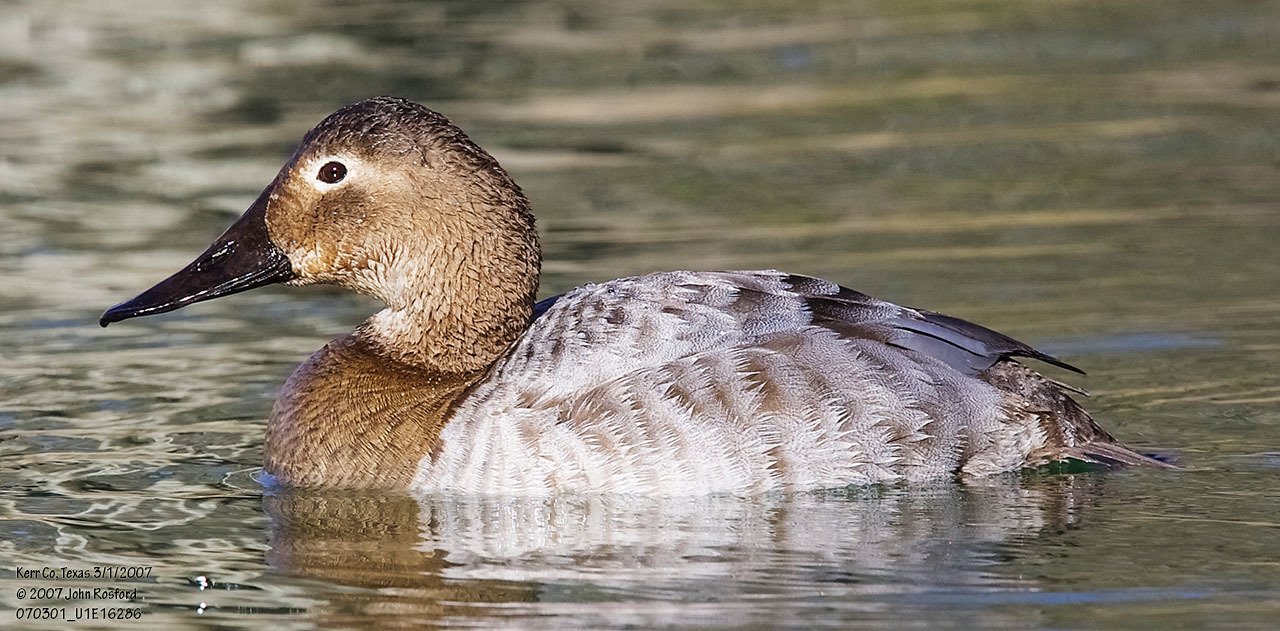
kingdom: Animalia
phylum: Chordata
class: Aves
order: Anseriformes
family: Anatidae
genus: Aythya
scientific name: Aythya valisineria
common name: Canvasback
